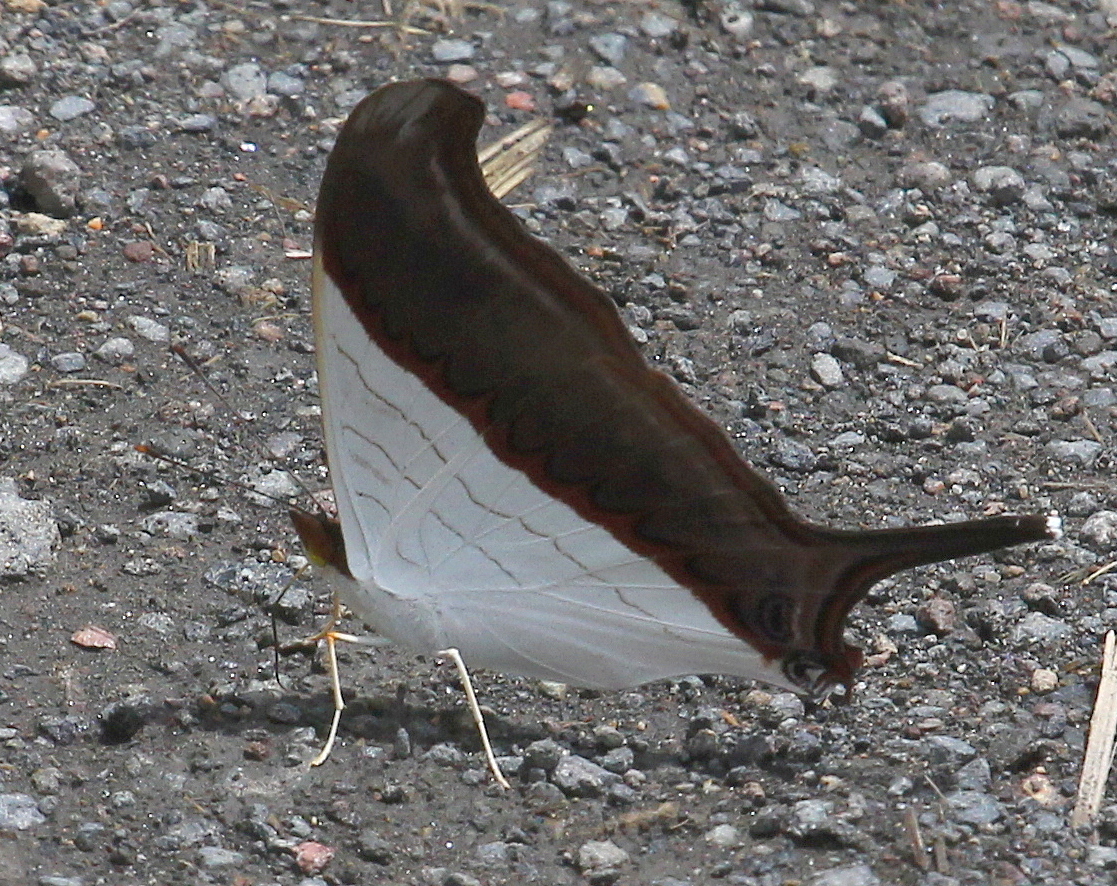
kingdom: Animalia
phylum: Arthropoda
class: Insecta
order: Lepidoptera
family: Nymphalidae
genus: Marpesia
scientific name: Marpesia zerynthia
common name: Waiter daggerwing
